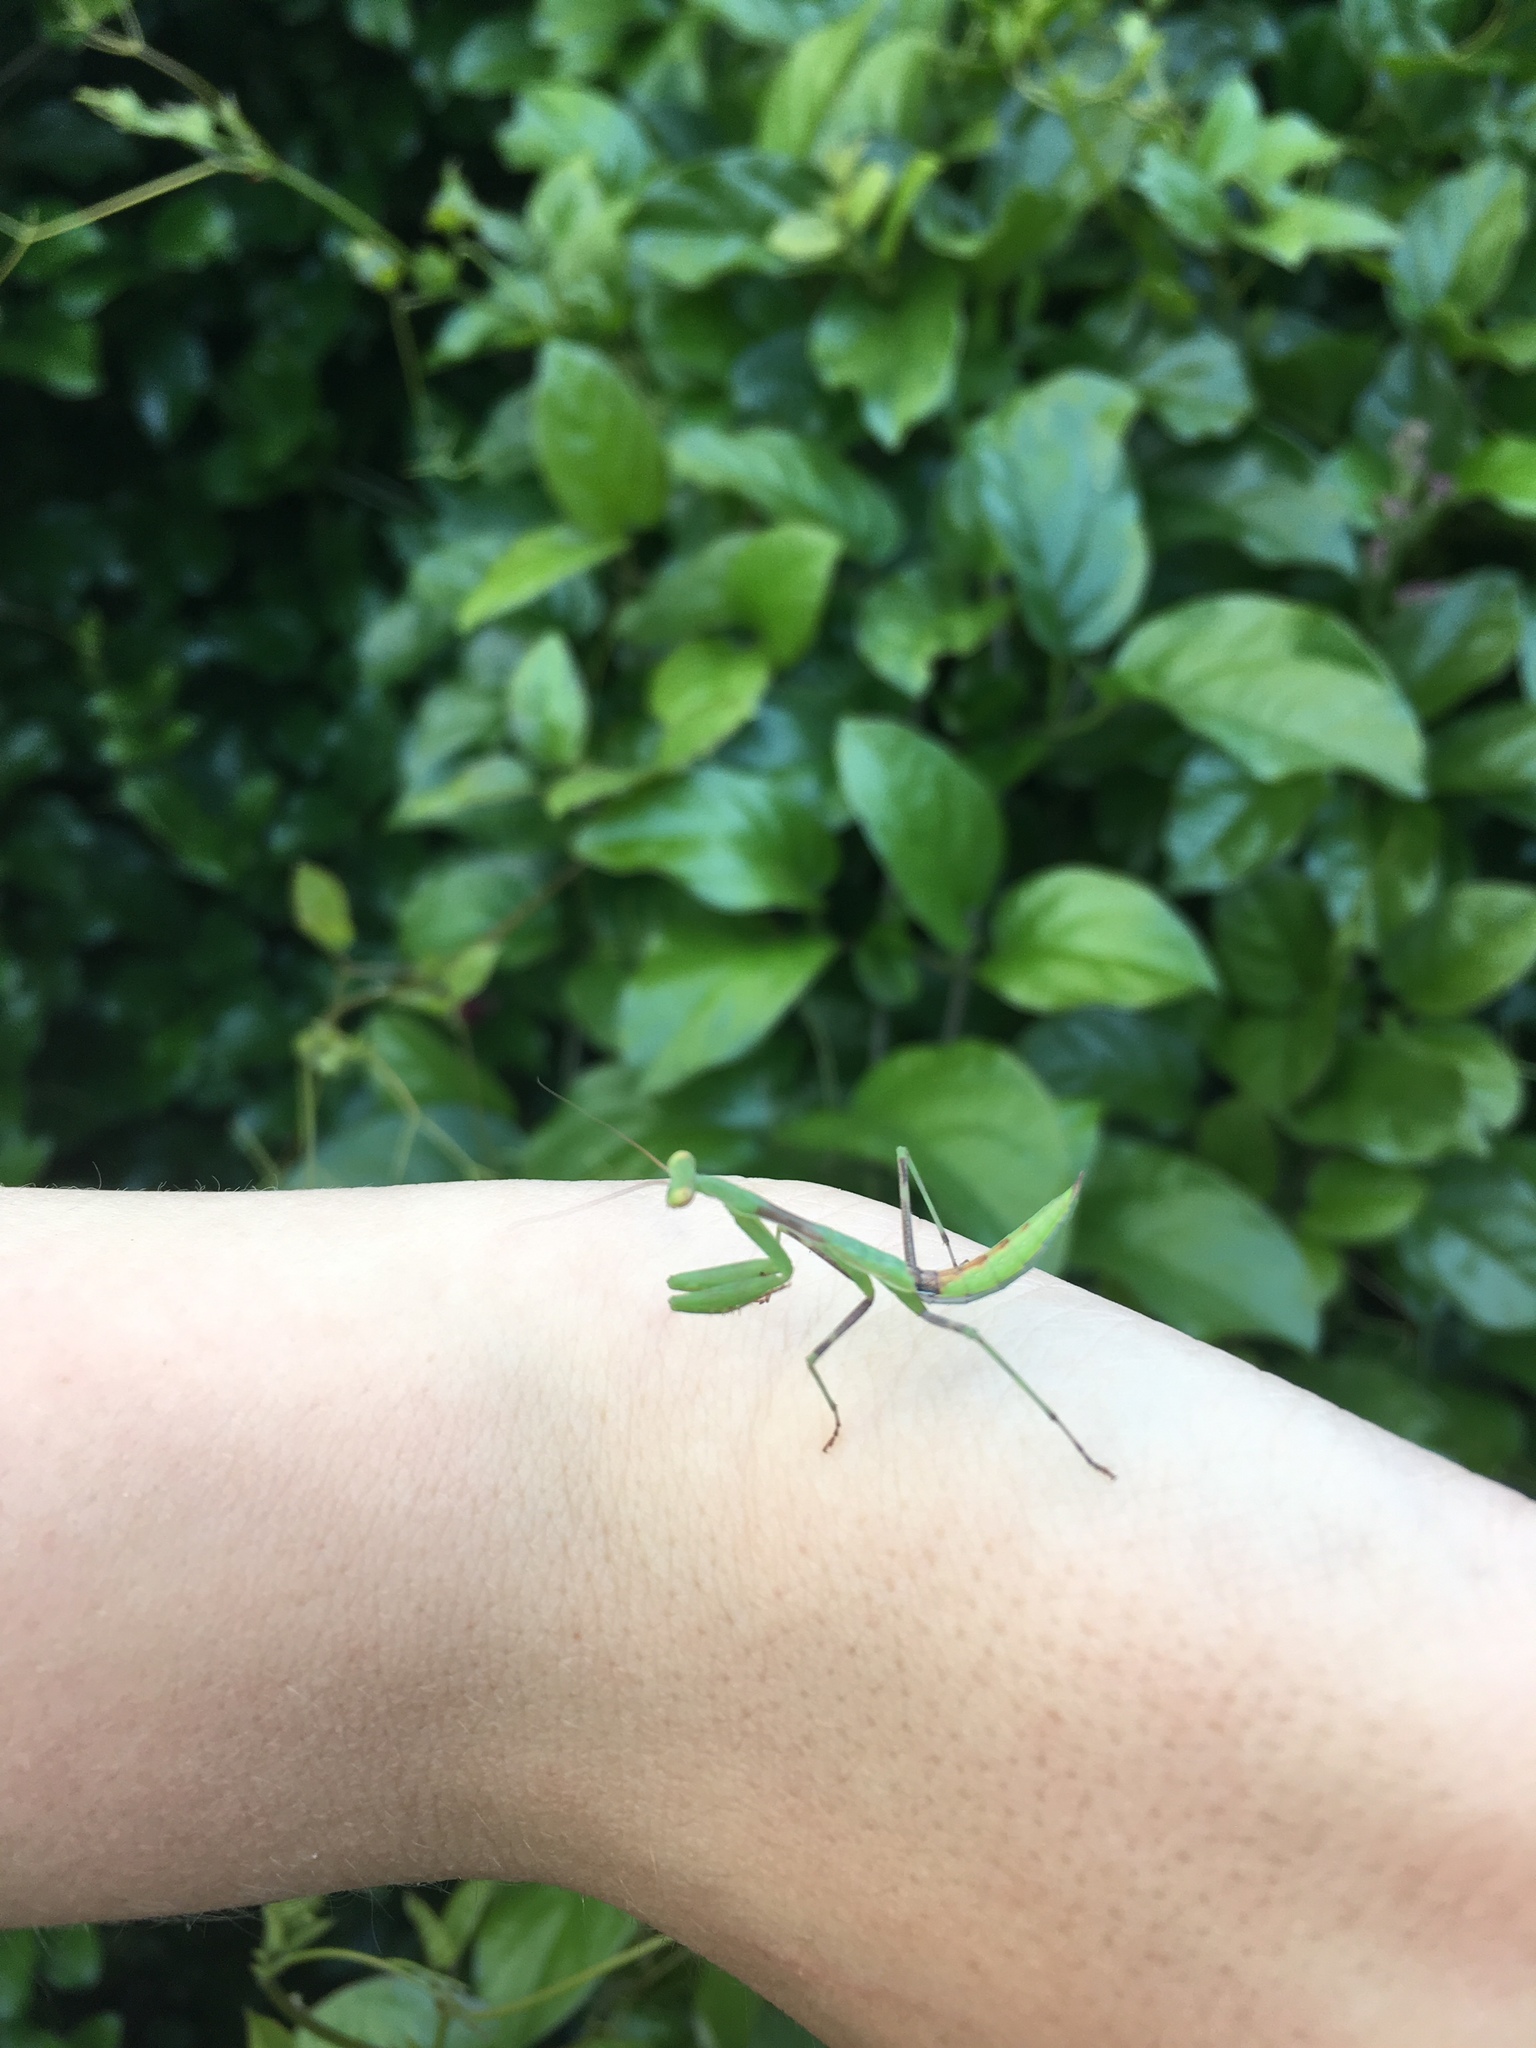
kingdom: Animalia
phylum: Arthropoda
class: Insecta
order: Mantodea
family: Miomantidae
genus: Miomantis
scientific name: Miomantis caffra
